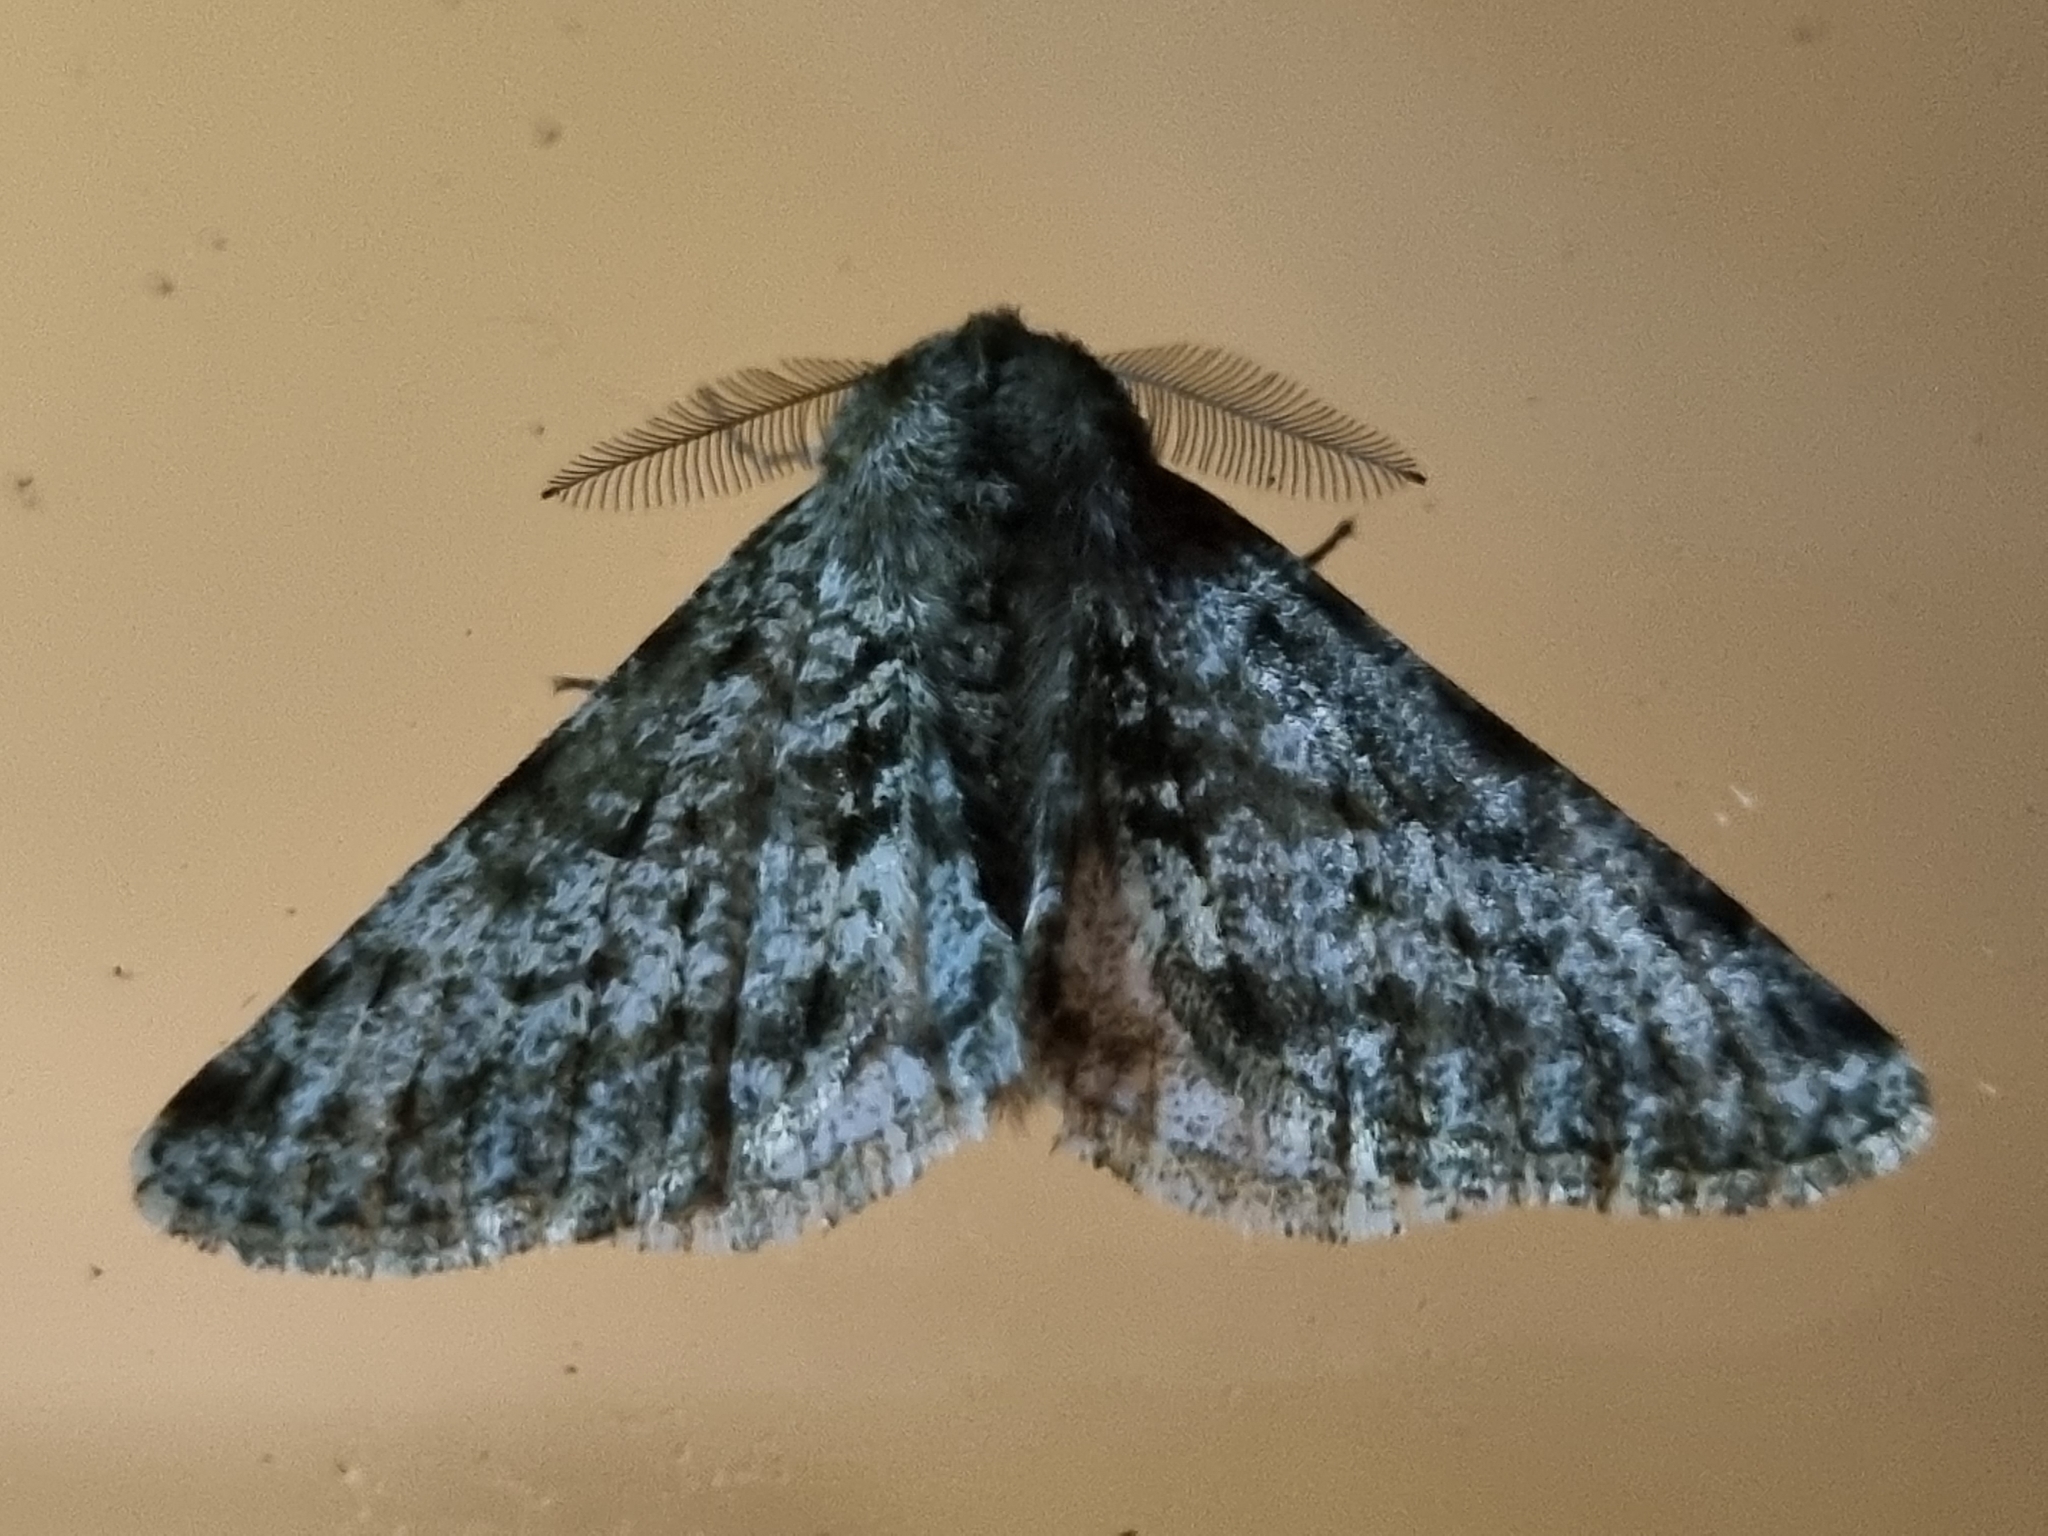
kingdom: Animalia
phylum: Arthropoda
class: Insecta
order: Lepidoptera
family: Geometridae
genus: Phigalia
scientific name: Phigalia pilosaria
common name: Pale brindled beauty
